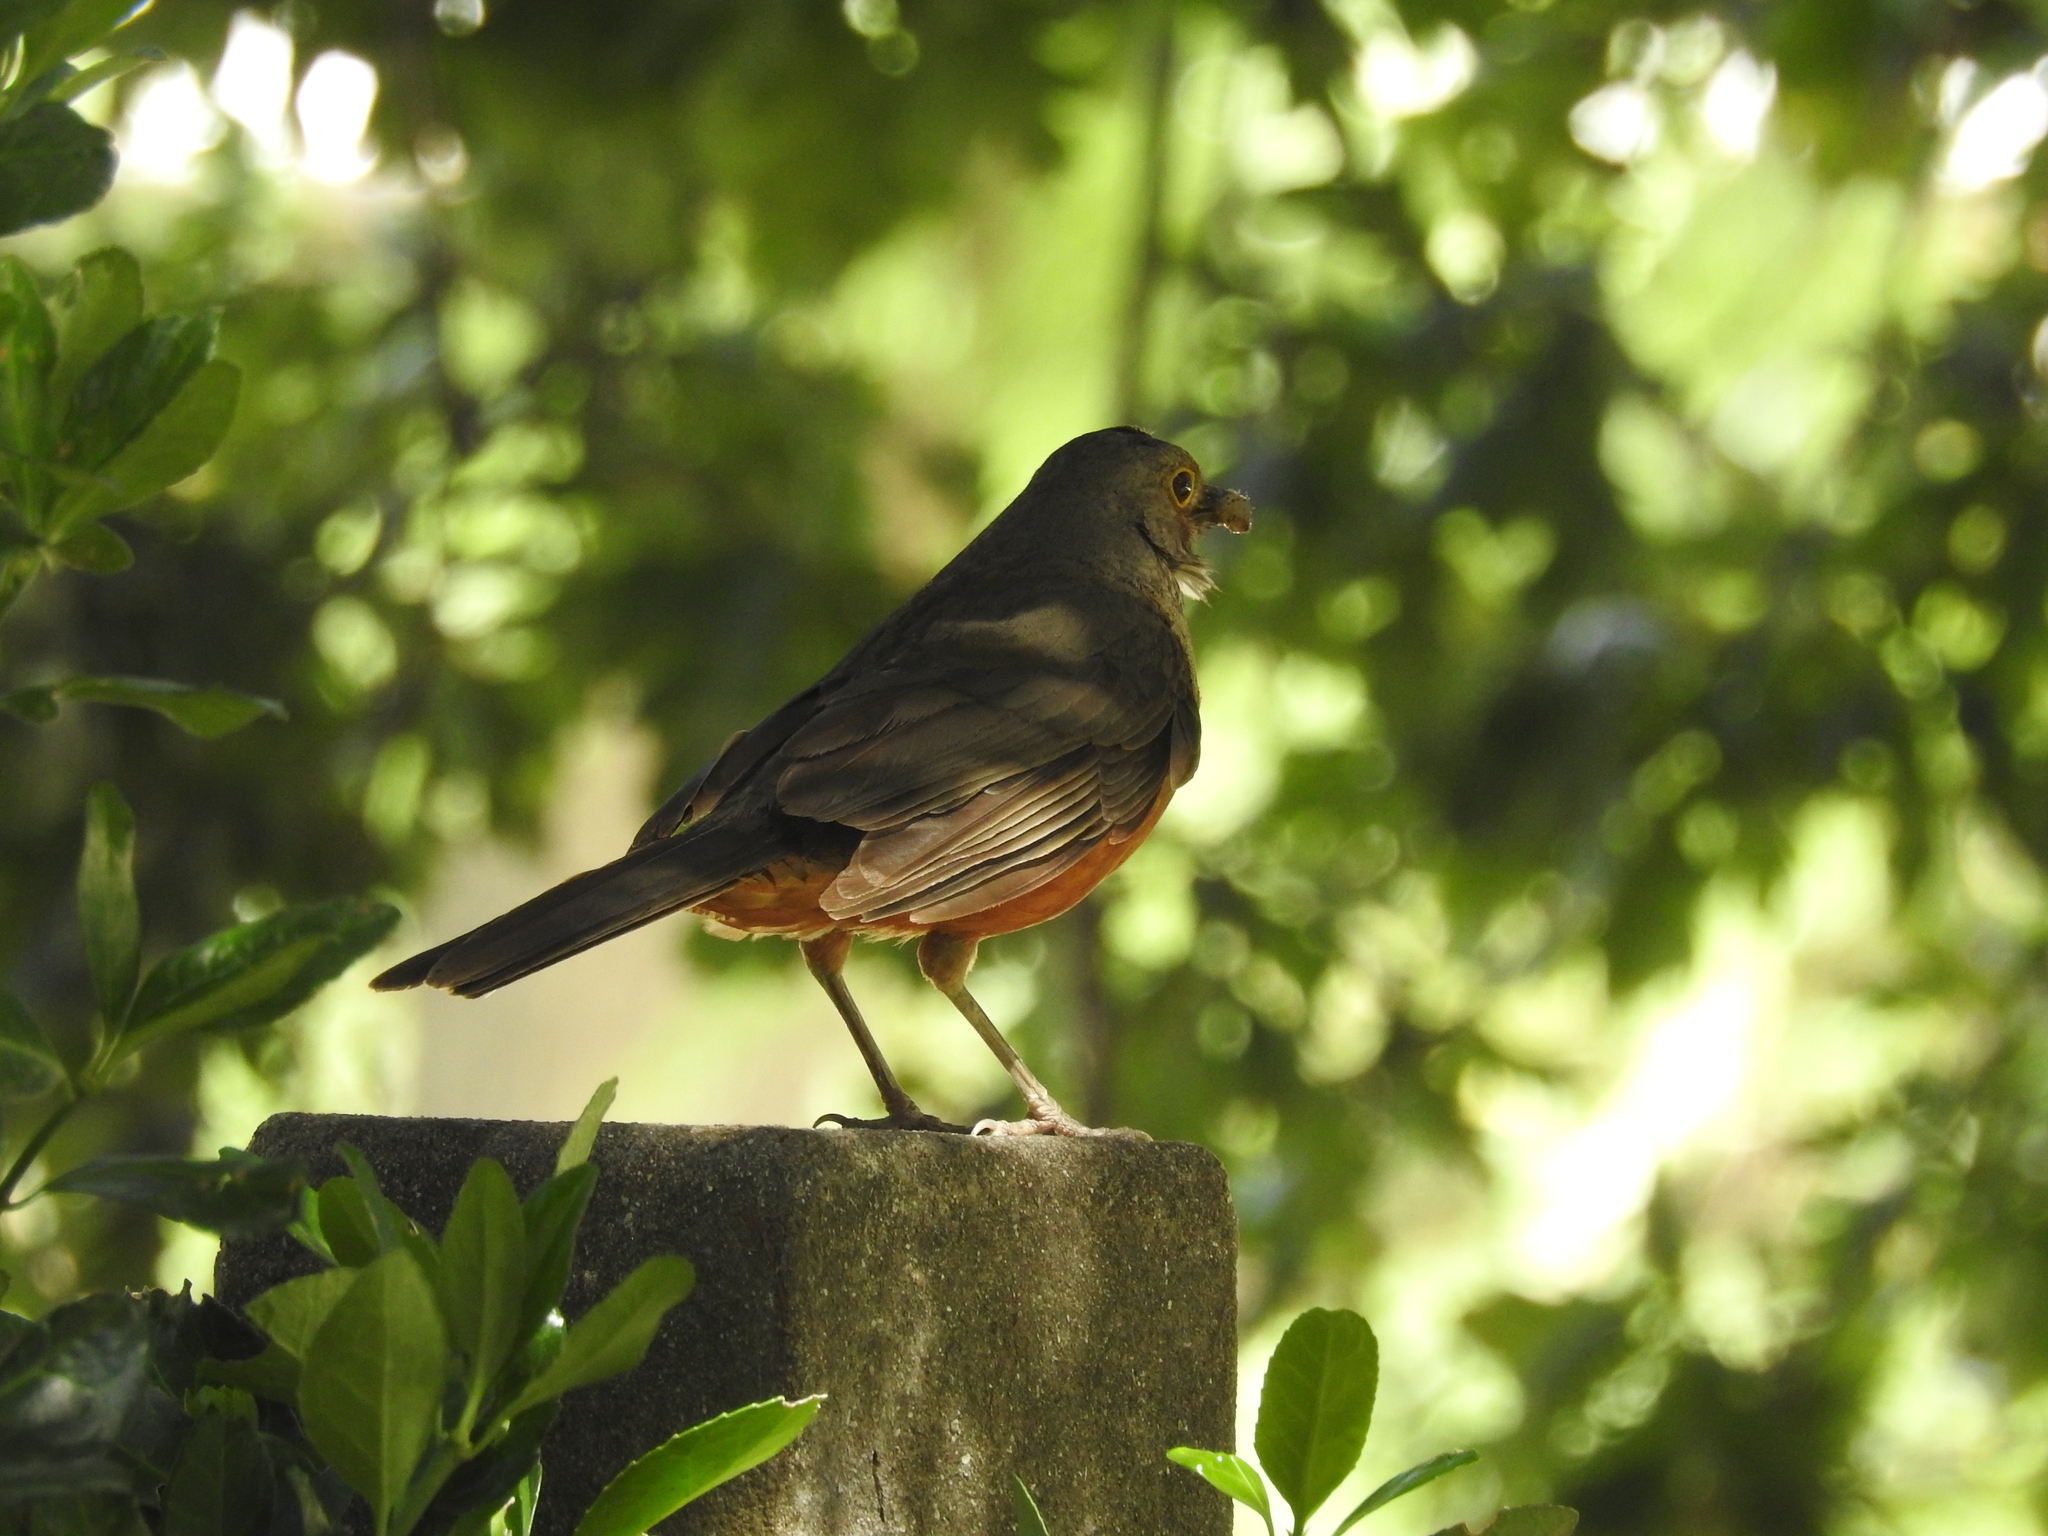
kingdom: Animalia
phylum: Chordata
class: Aves
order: Passeriformes
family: Turdidae
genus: Turdus
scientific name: Turdus rufiventris
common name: Rufous-bellied thrush
